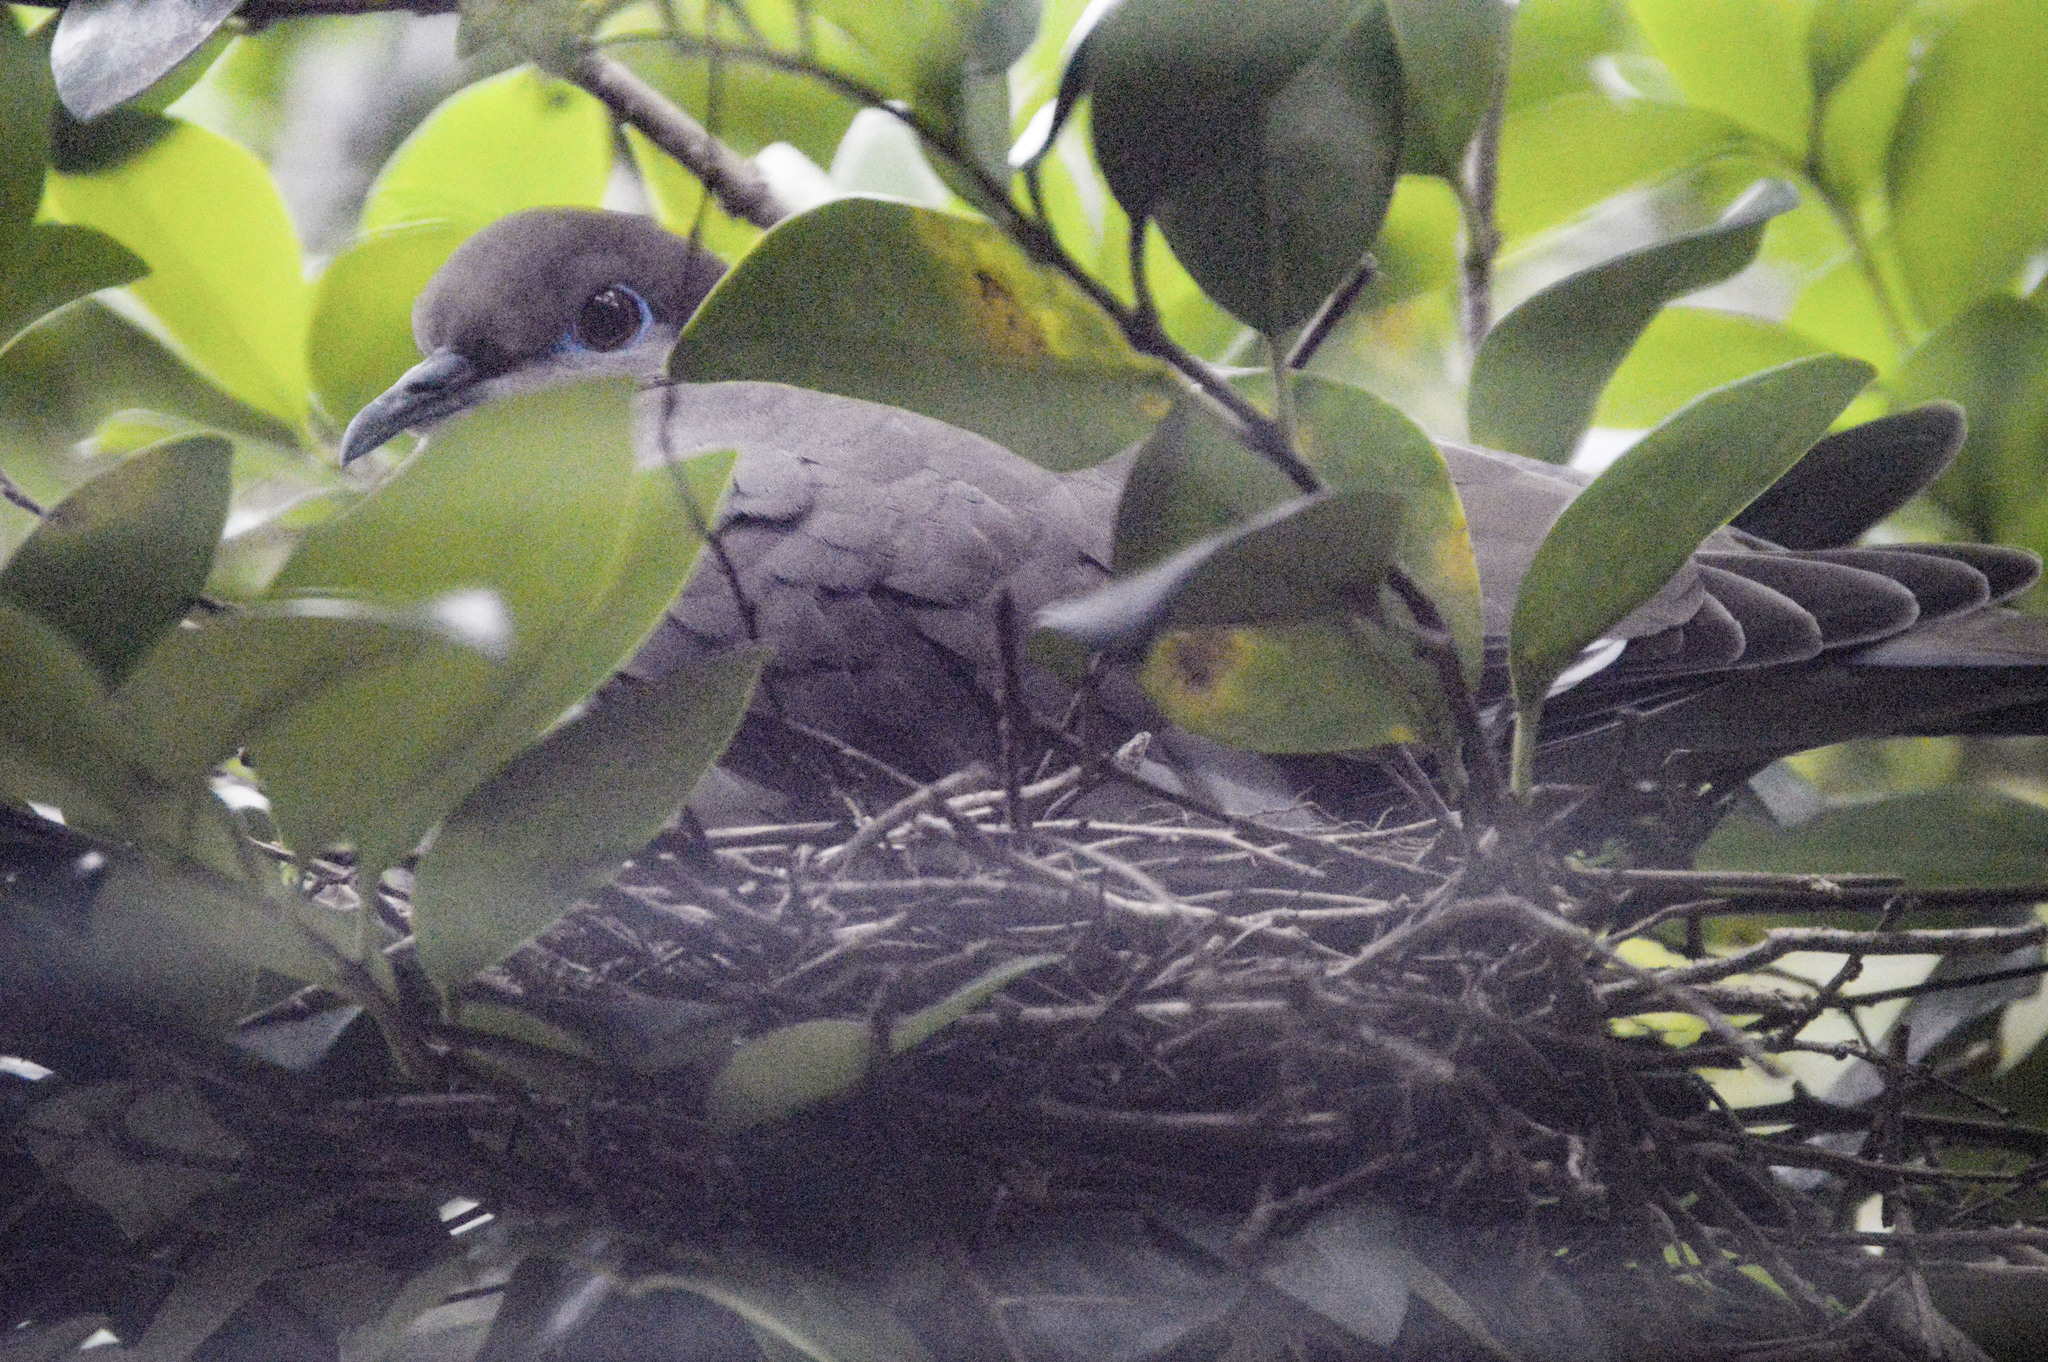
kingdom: Animalia
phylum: Chordata
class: Aves
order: Columbiformes
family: Columbidae
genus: Zenaida
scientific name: Zenaida asiatica
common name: White-winged dove
